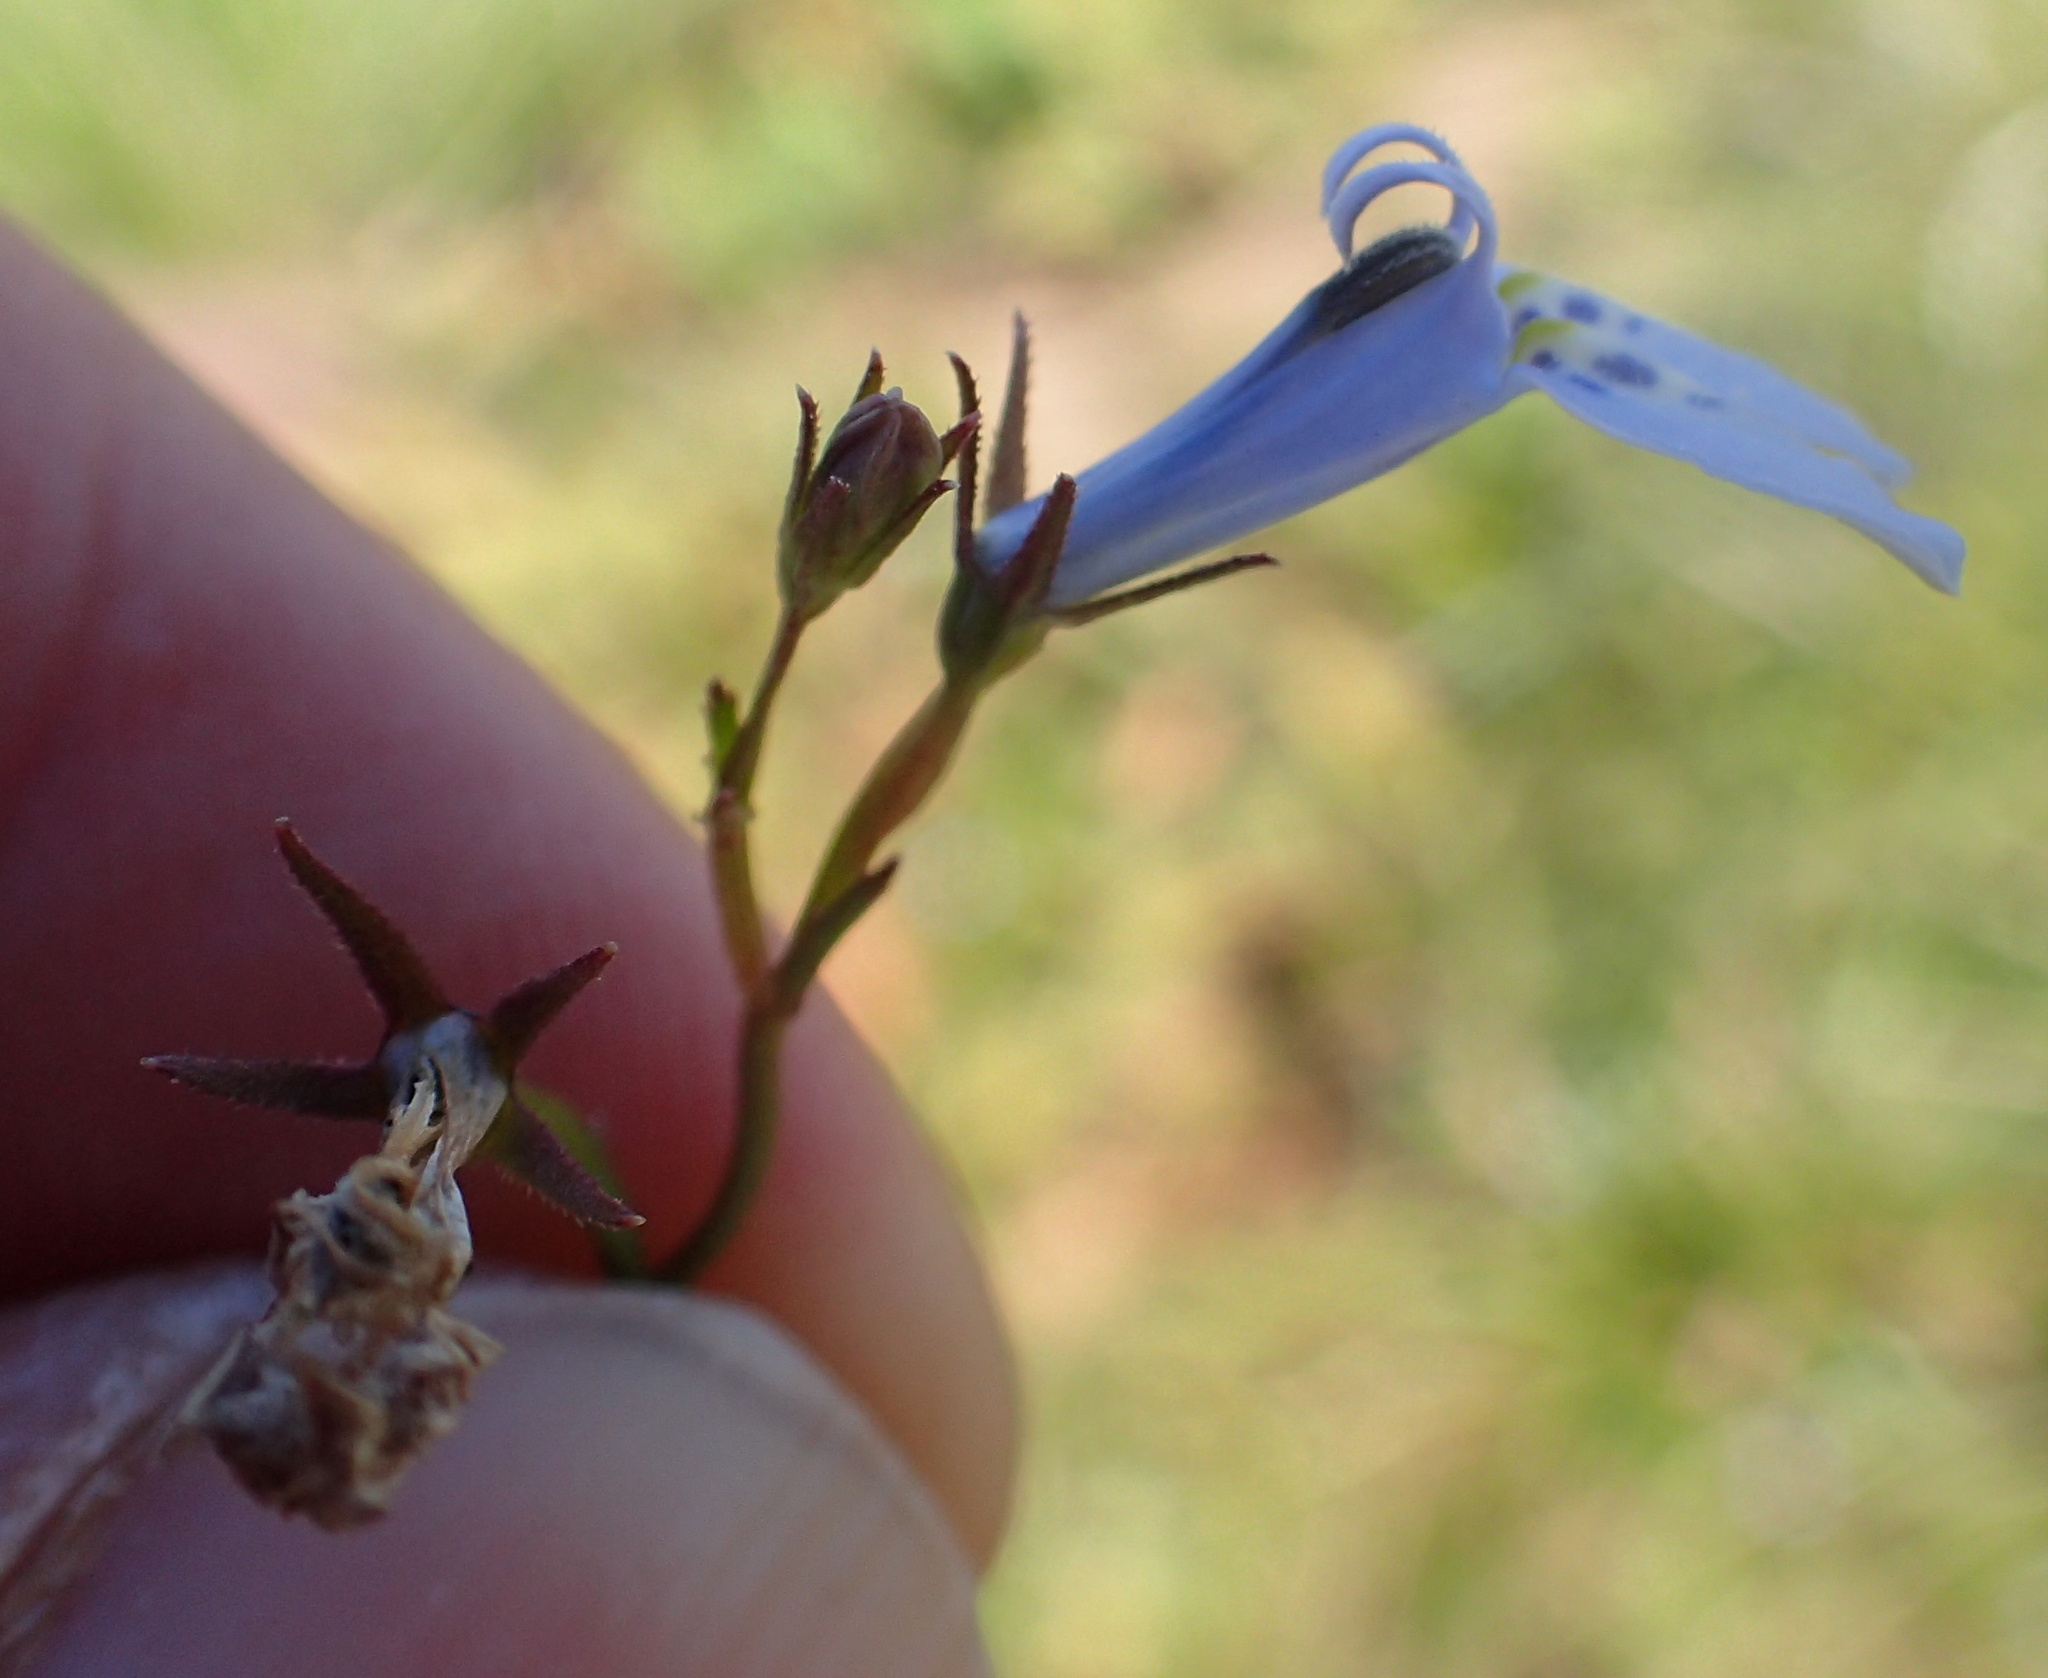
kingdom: Plantae
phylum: Tracheophyta
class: Magnoliopsida
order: Asterales
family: Campanulaceae
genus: Lobelia
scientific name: Lobelia flaccida
